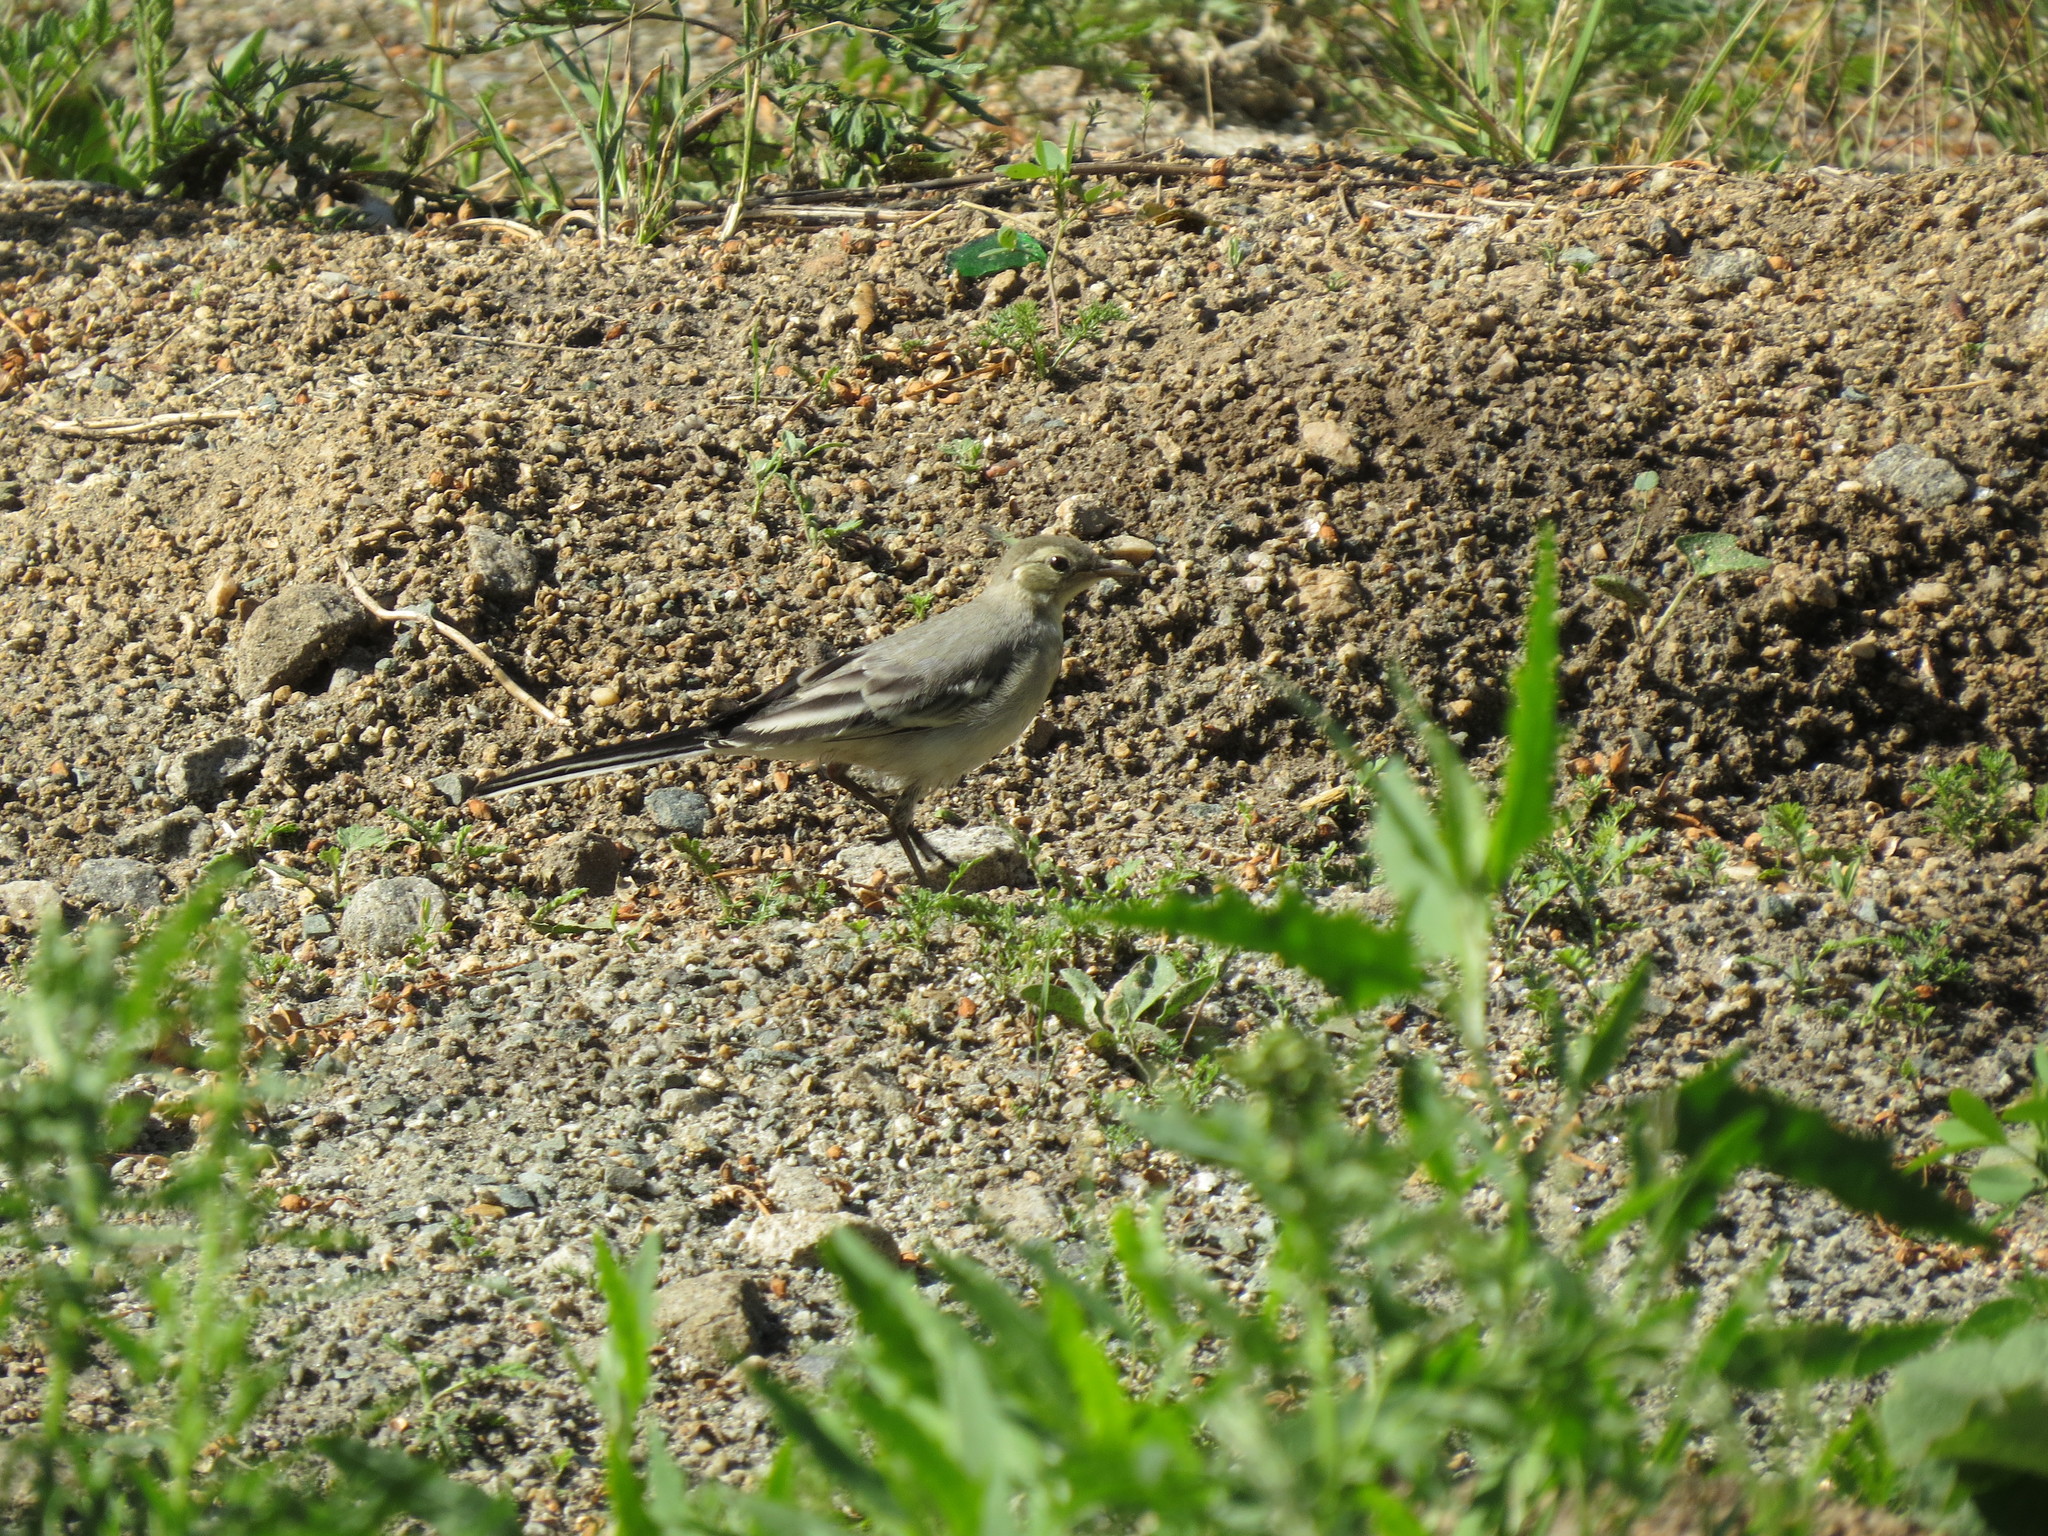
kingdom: Animalia
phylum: Chordata
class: Aves
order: Passeriformes
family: Motacillidae
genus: Motacilla
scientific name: Motacilla alba
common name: White wagtail
